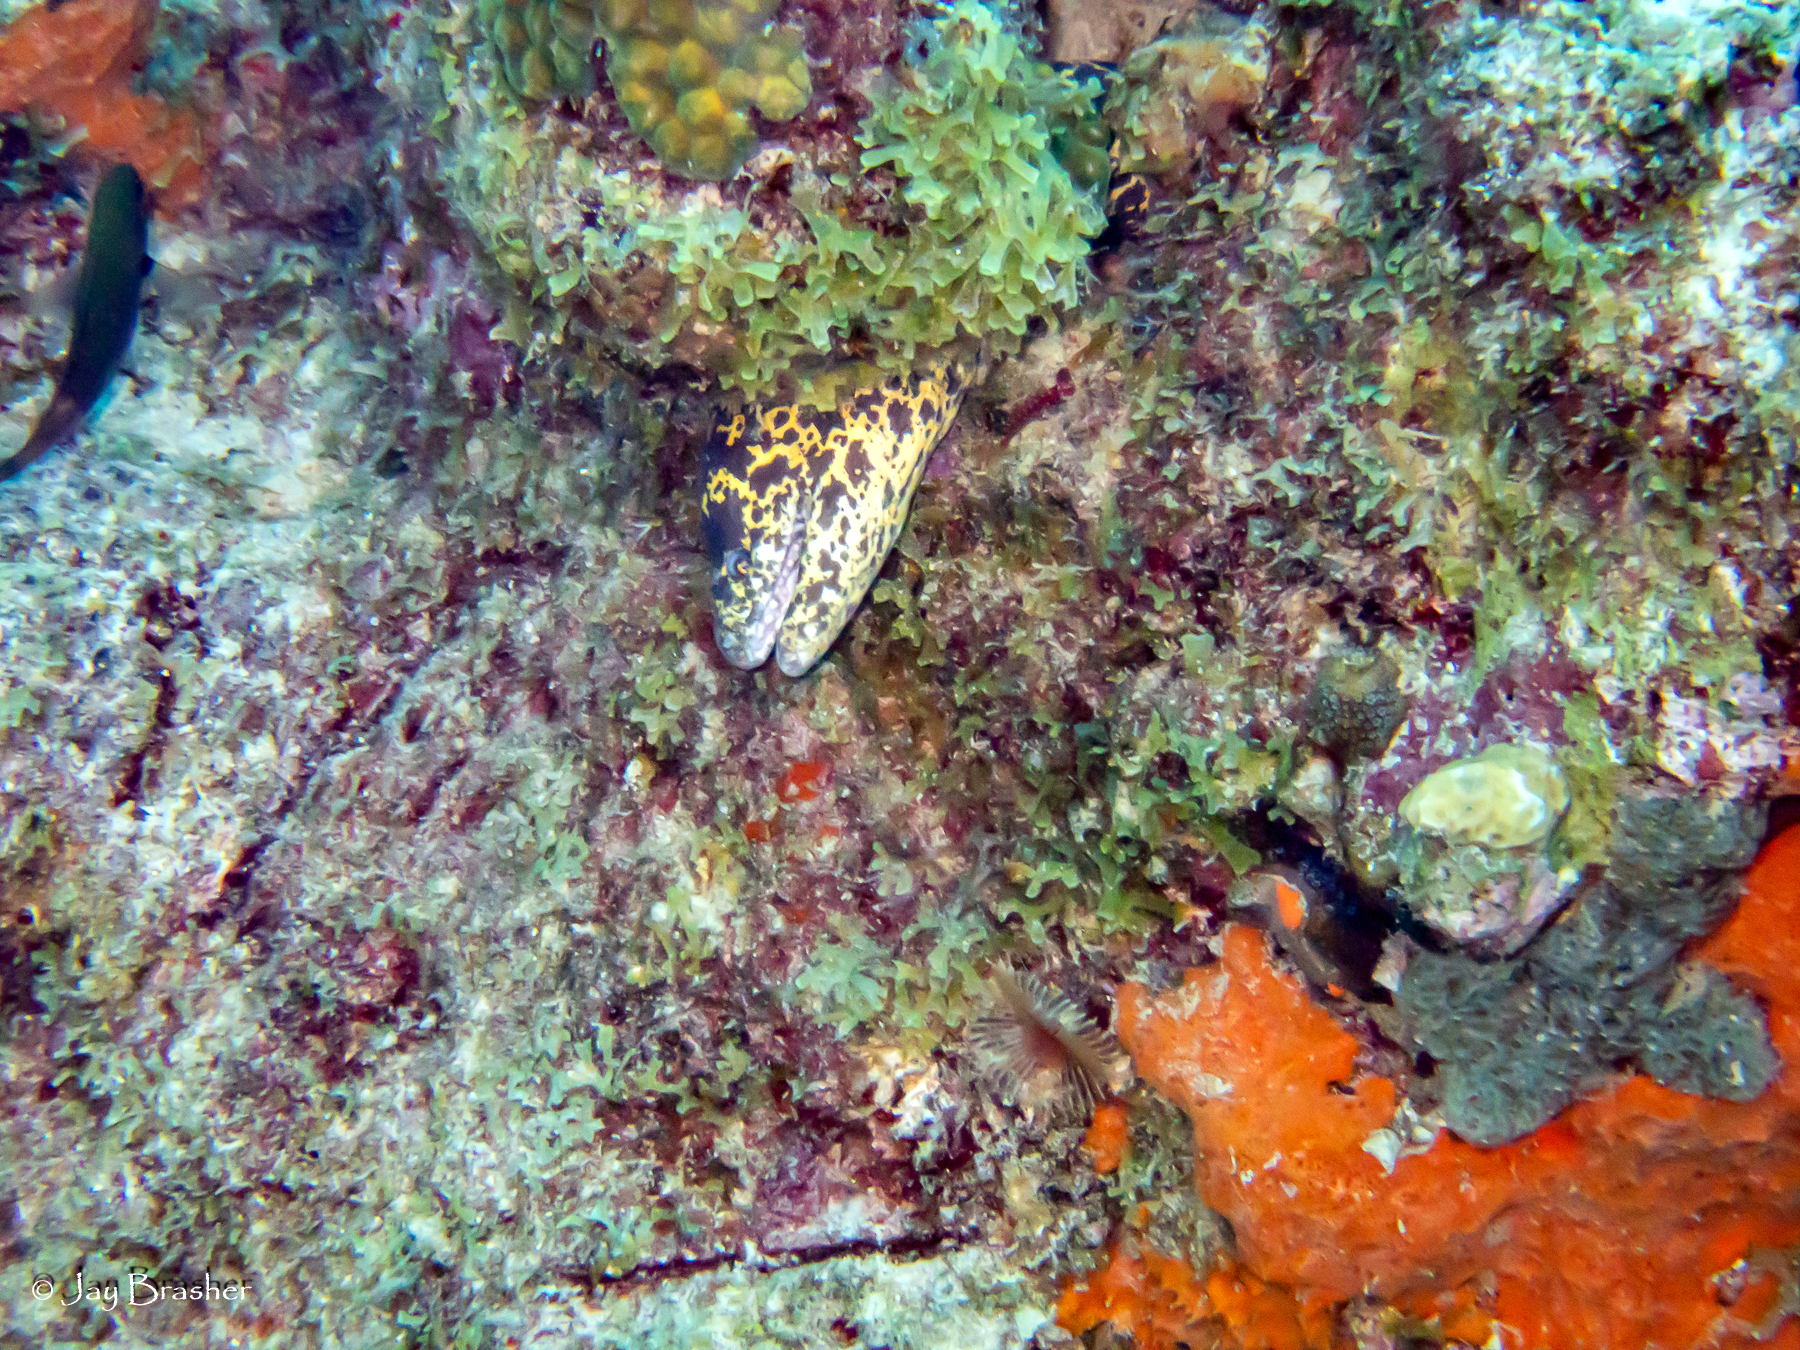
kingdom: Animalia
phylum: Annelida
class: Polychaeta
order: Sabellida
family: Sabellidae
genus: Anamobaea
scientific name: Anamobaea orstedii
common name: Split-crown feather duster
